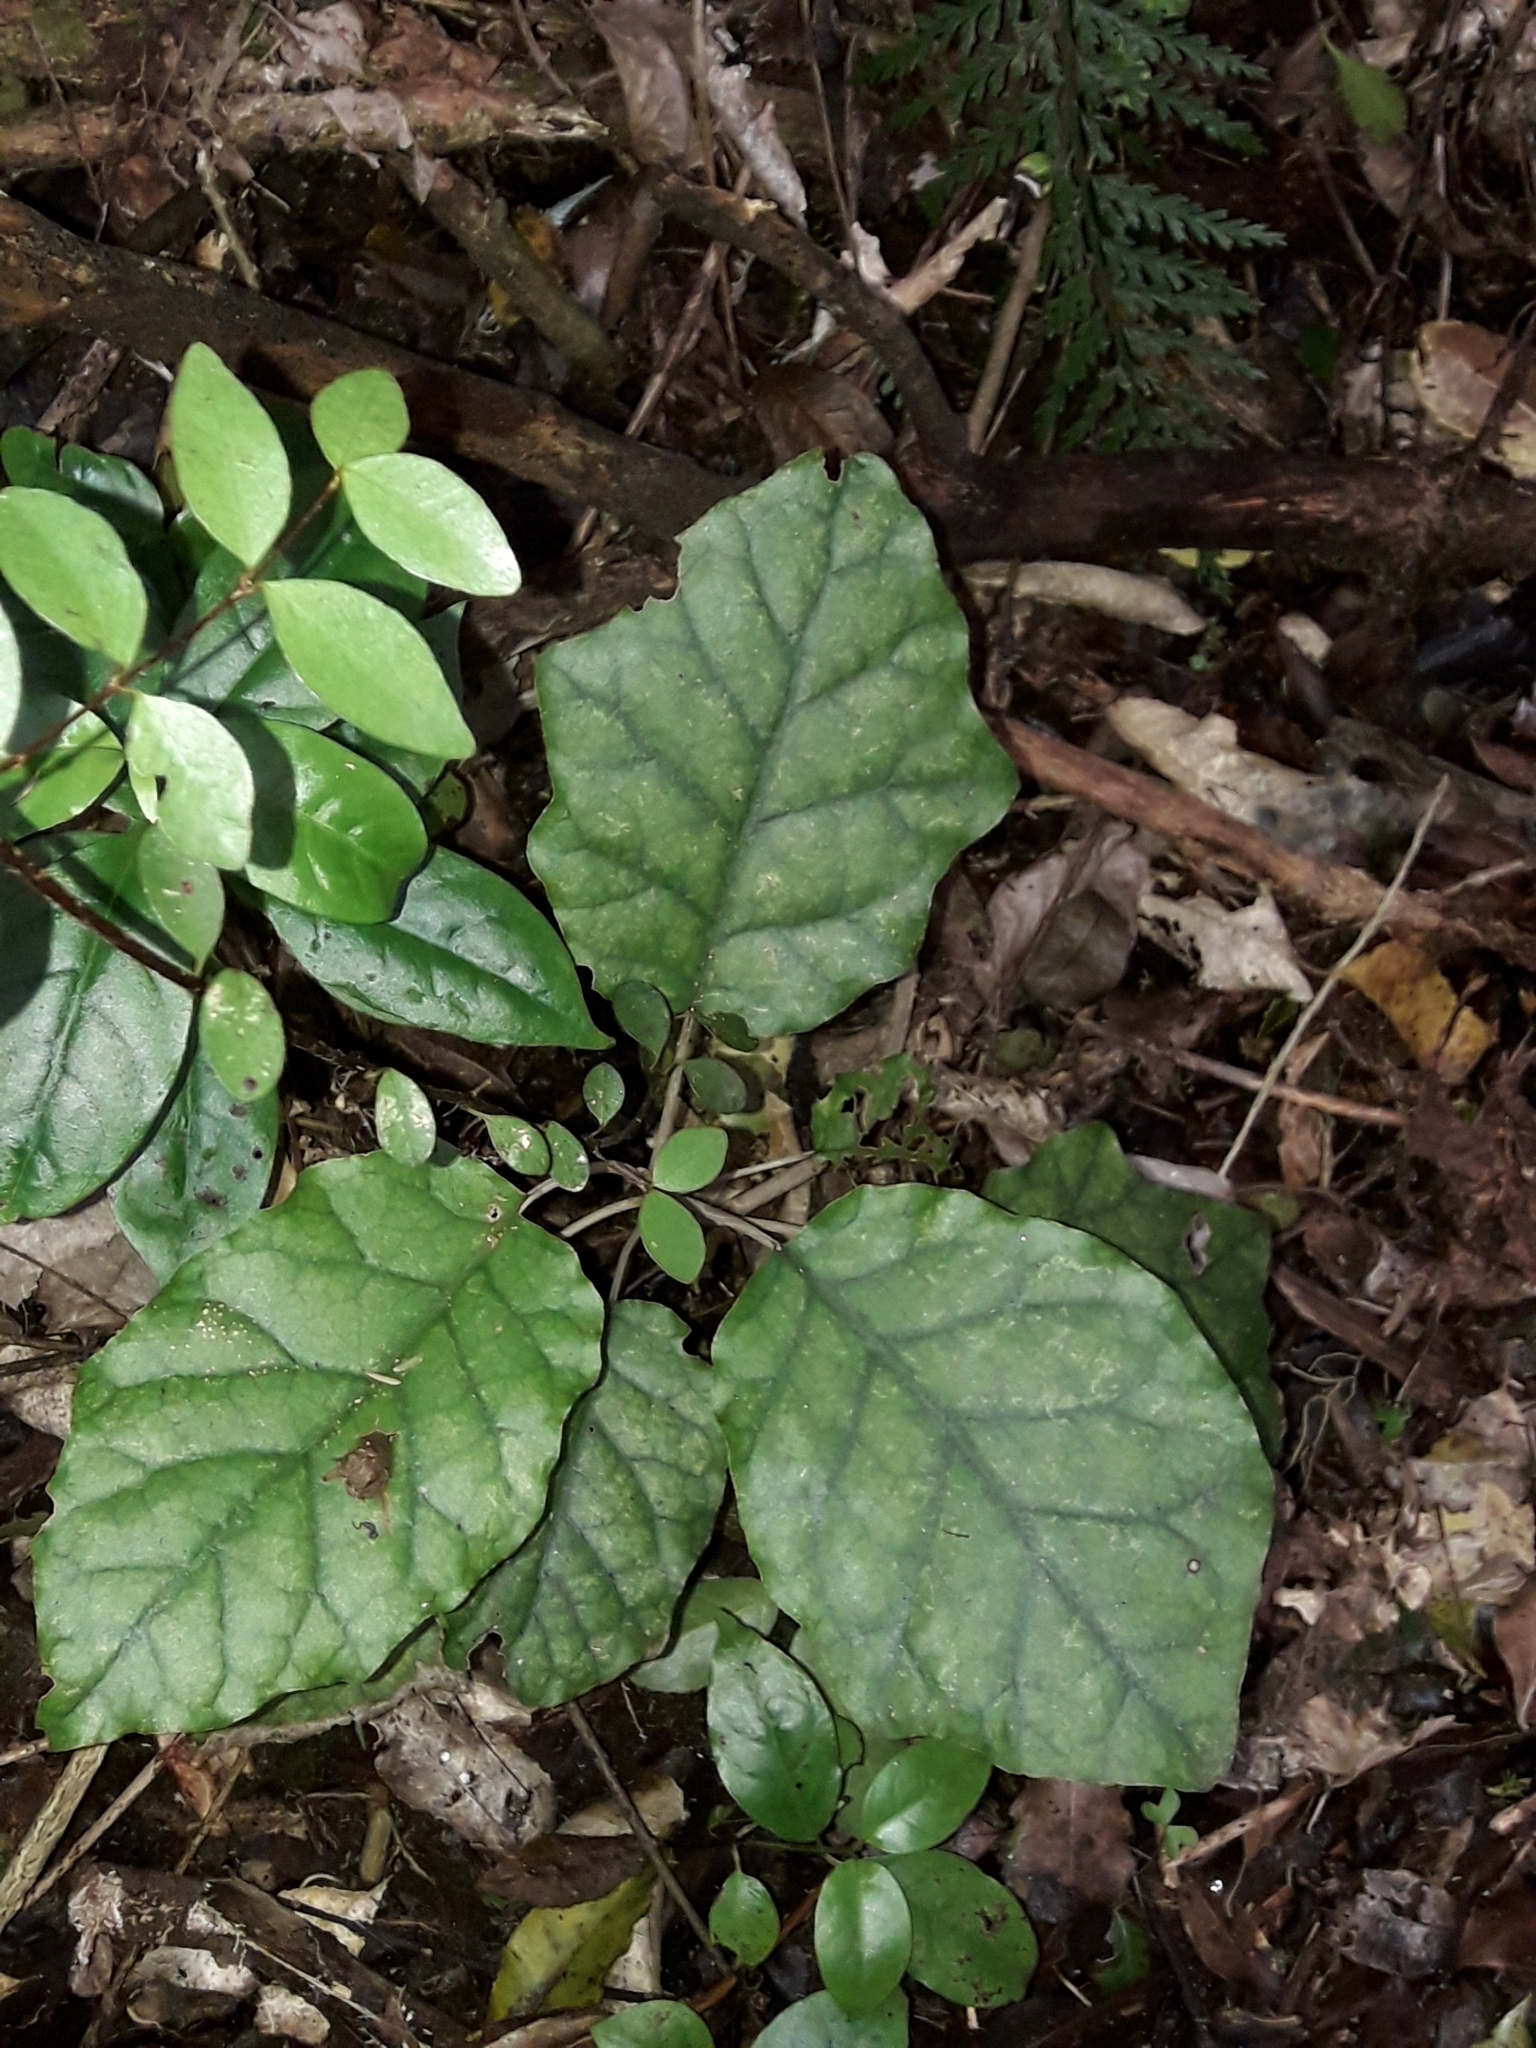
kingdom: Plantae
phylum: Tracheophyta
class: Magnoliopsida
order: Asterales
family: Asteraceae
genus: Brachyglottis
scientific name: Brachyglottis repanda
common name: Hedge ragwort
